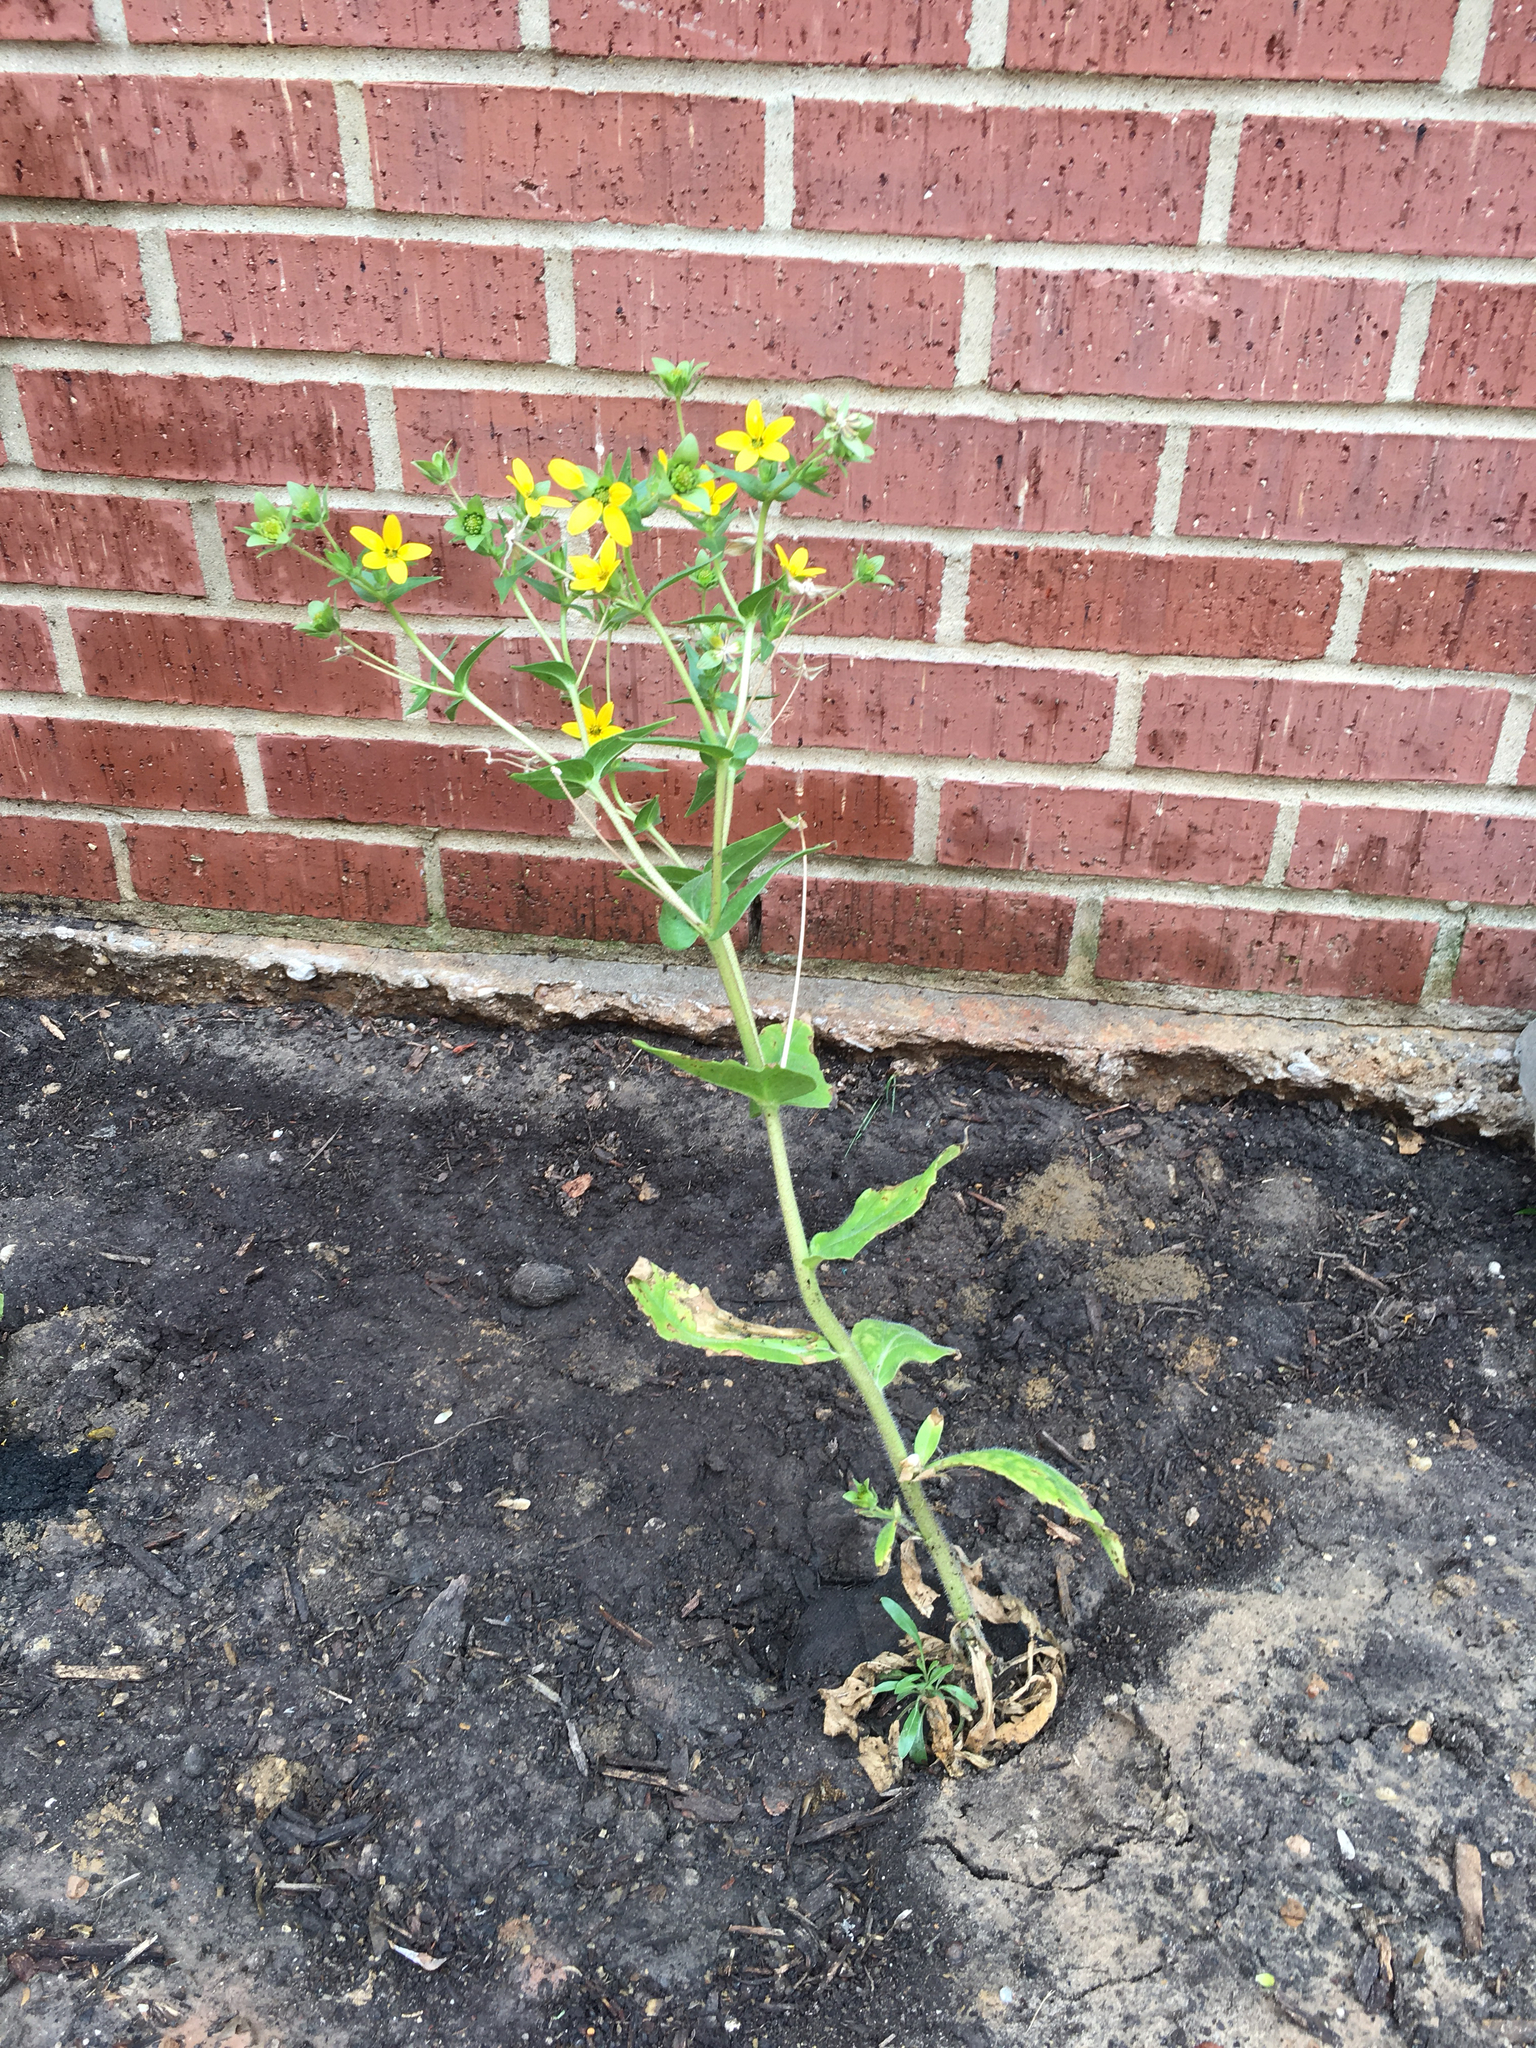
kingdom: Plantae
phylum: Tracheophyta
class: Magnoliopsida
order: Asterales
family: Asteraceae
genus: Lindheimera
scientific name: Lindheimera texana
